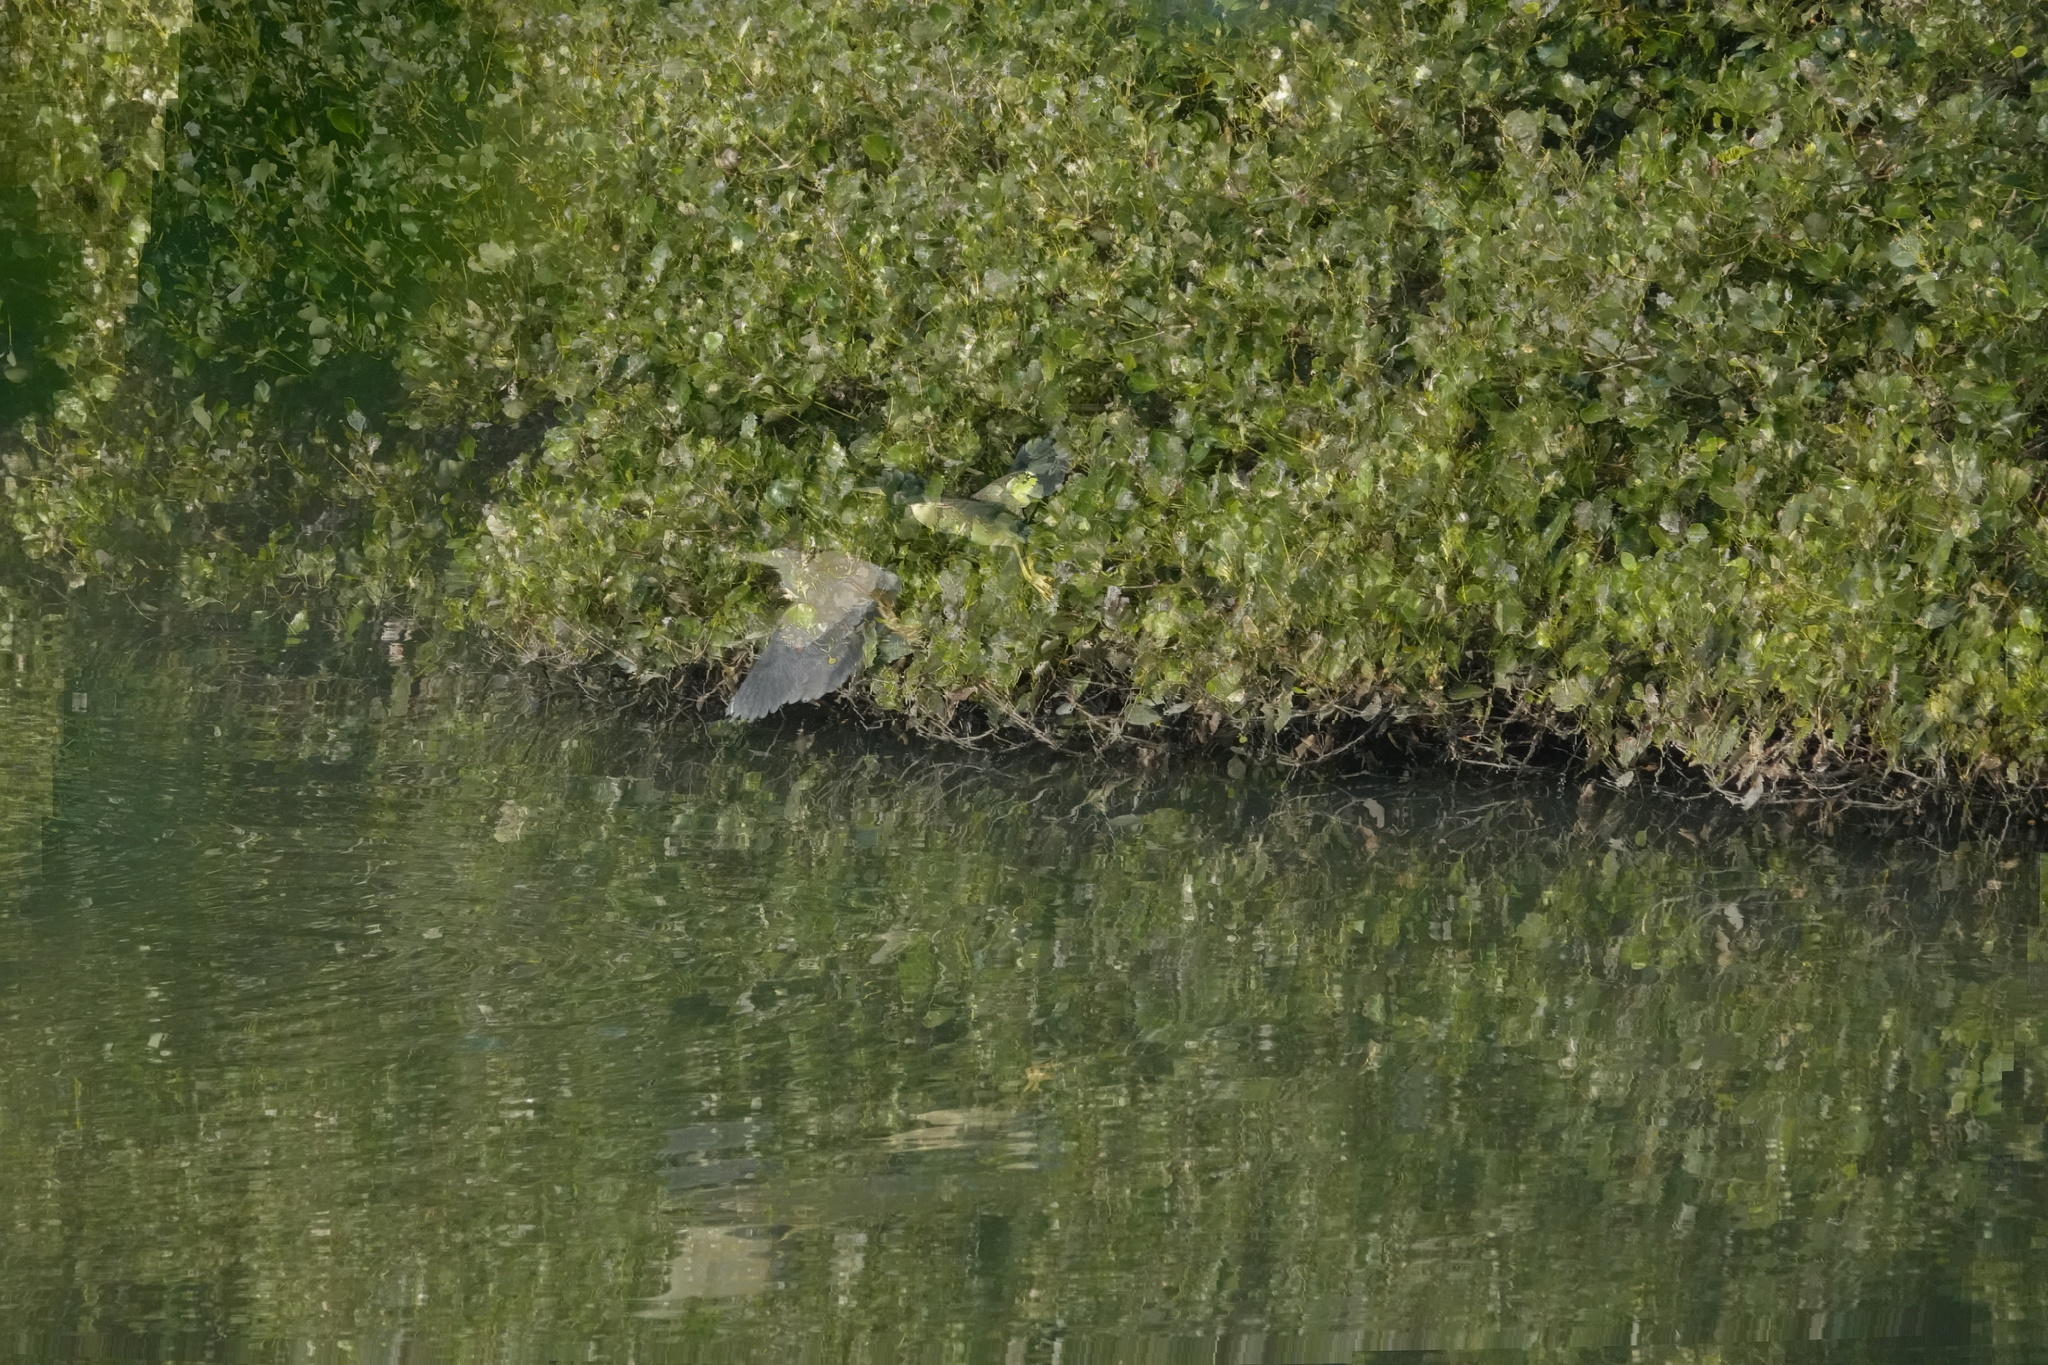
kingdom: Animalia
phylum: Chordata
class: Aves
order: Pelecaniformes
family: Ardeidae
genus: Ixobrychus
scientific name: Ixobrychus sinensis
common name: Yellow bittern
